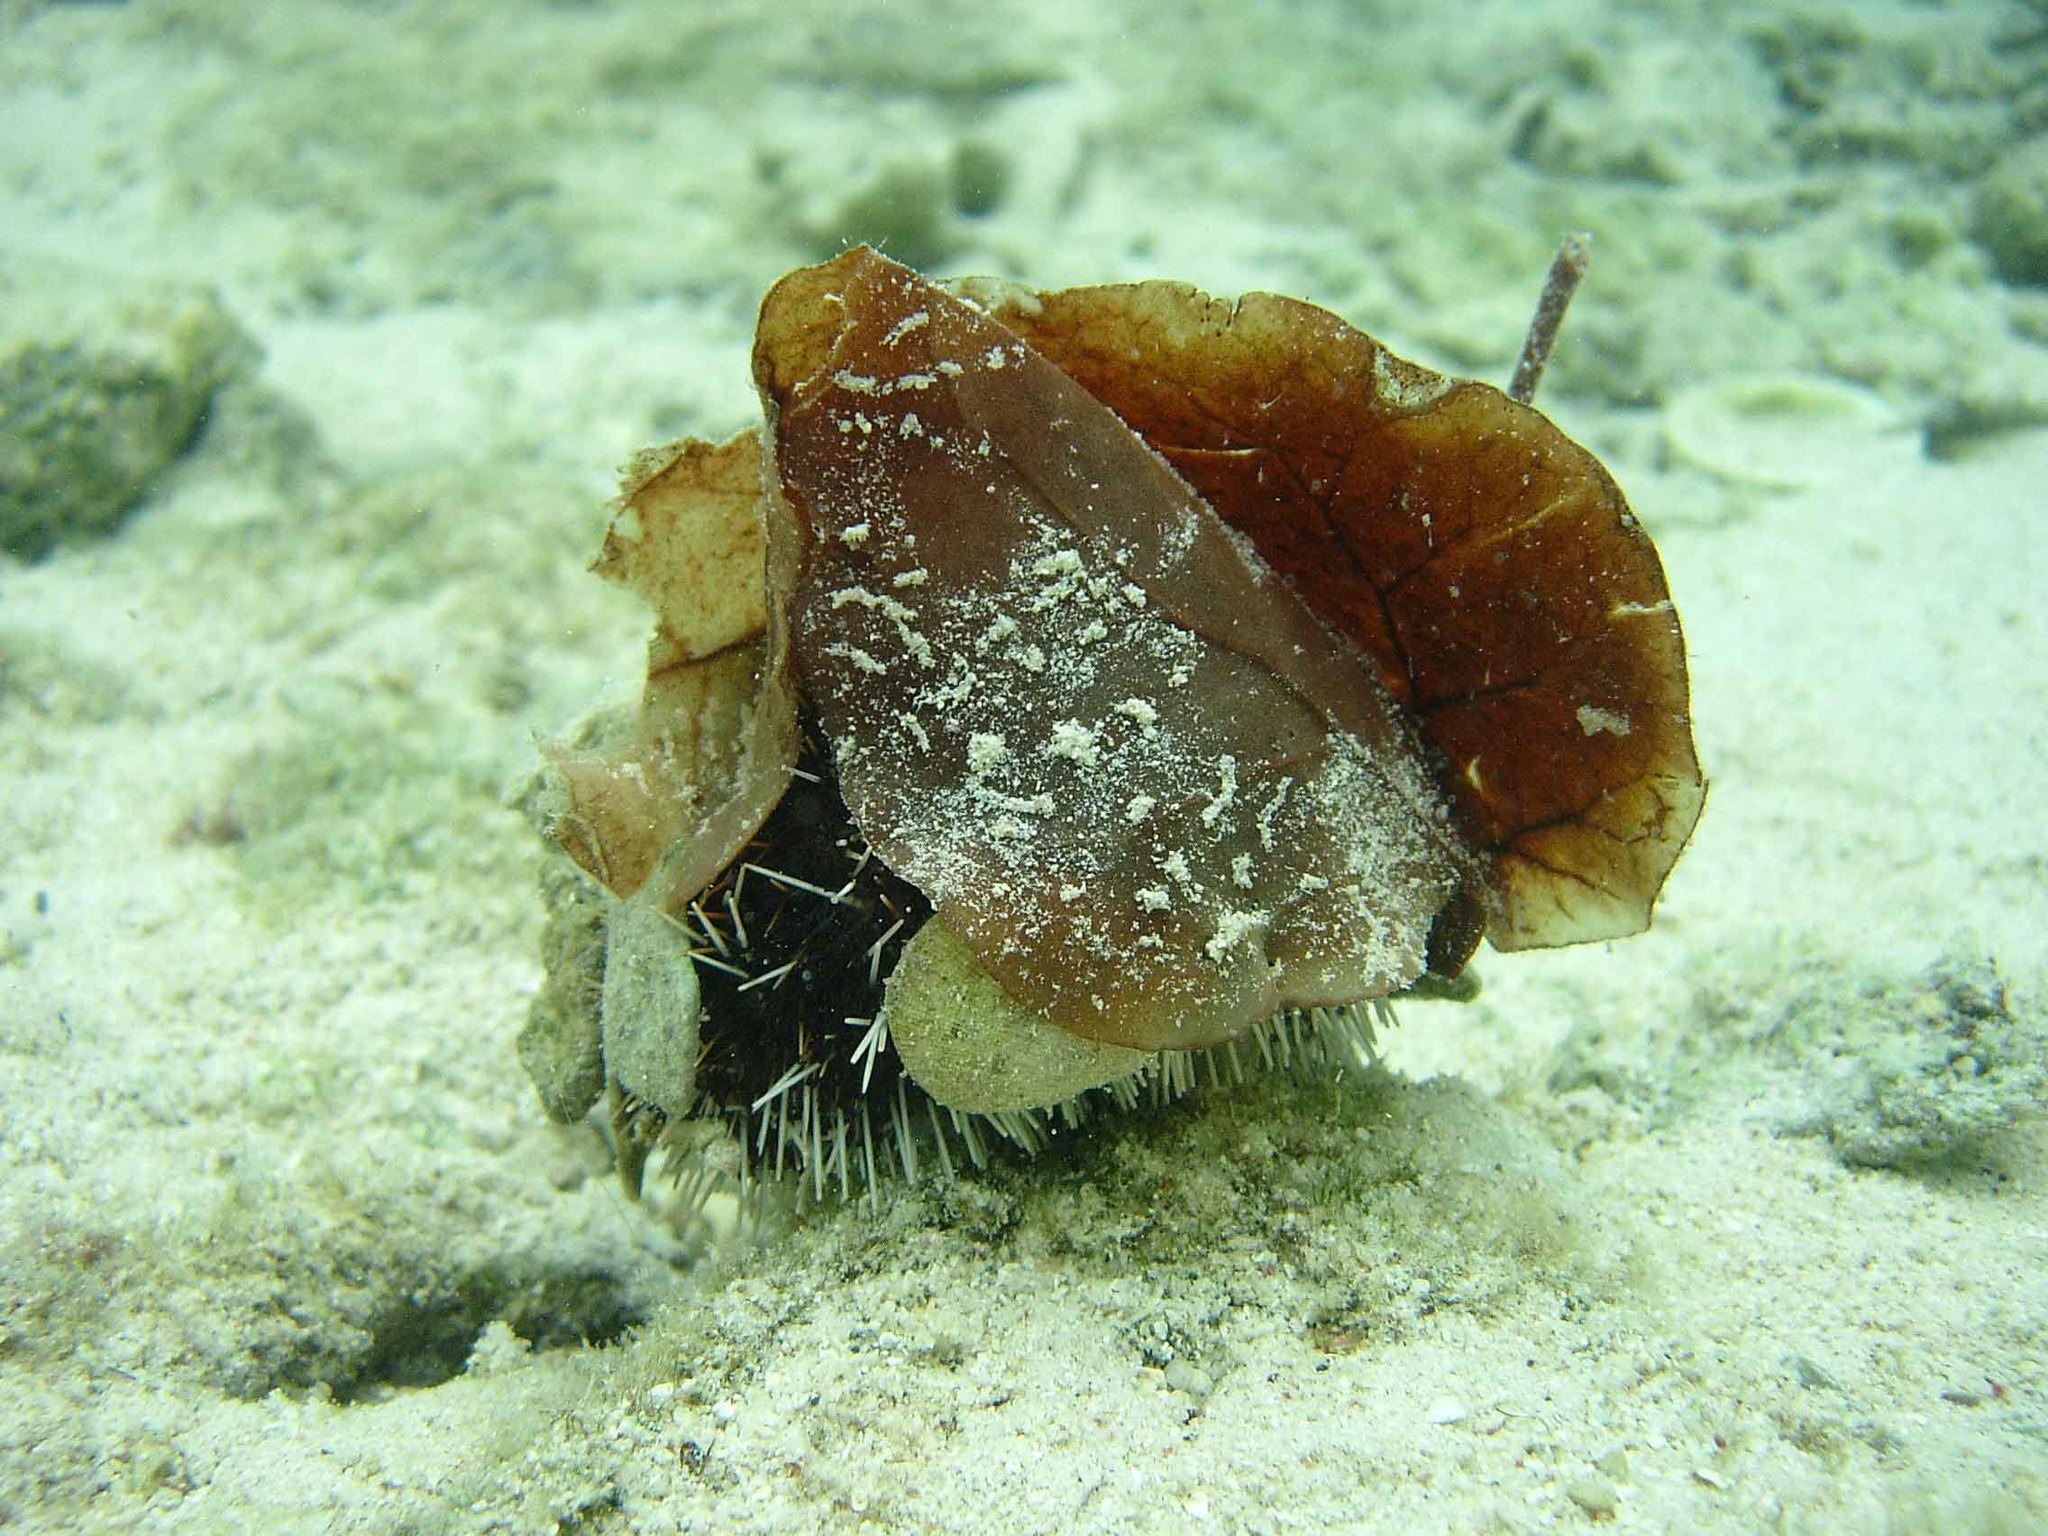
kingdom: Animalia
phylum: Echinodermata
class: Echinoidea
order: Camarodonta
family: Toxopneustidae
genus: Tripneustes
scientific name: Tripneustes gratilla
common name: Bischofsmützenseeigel
